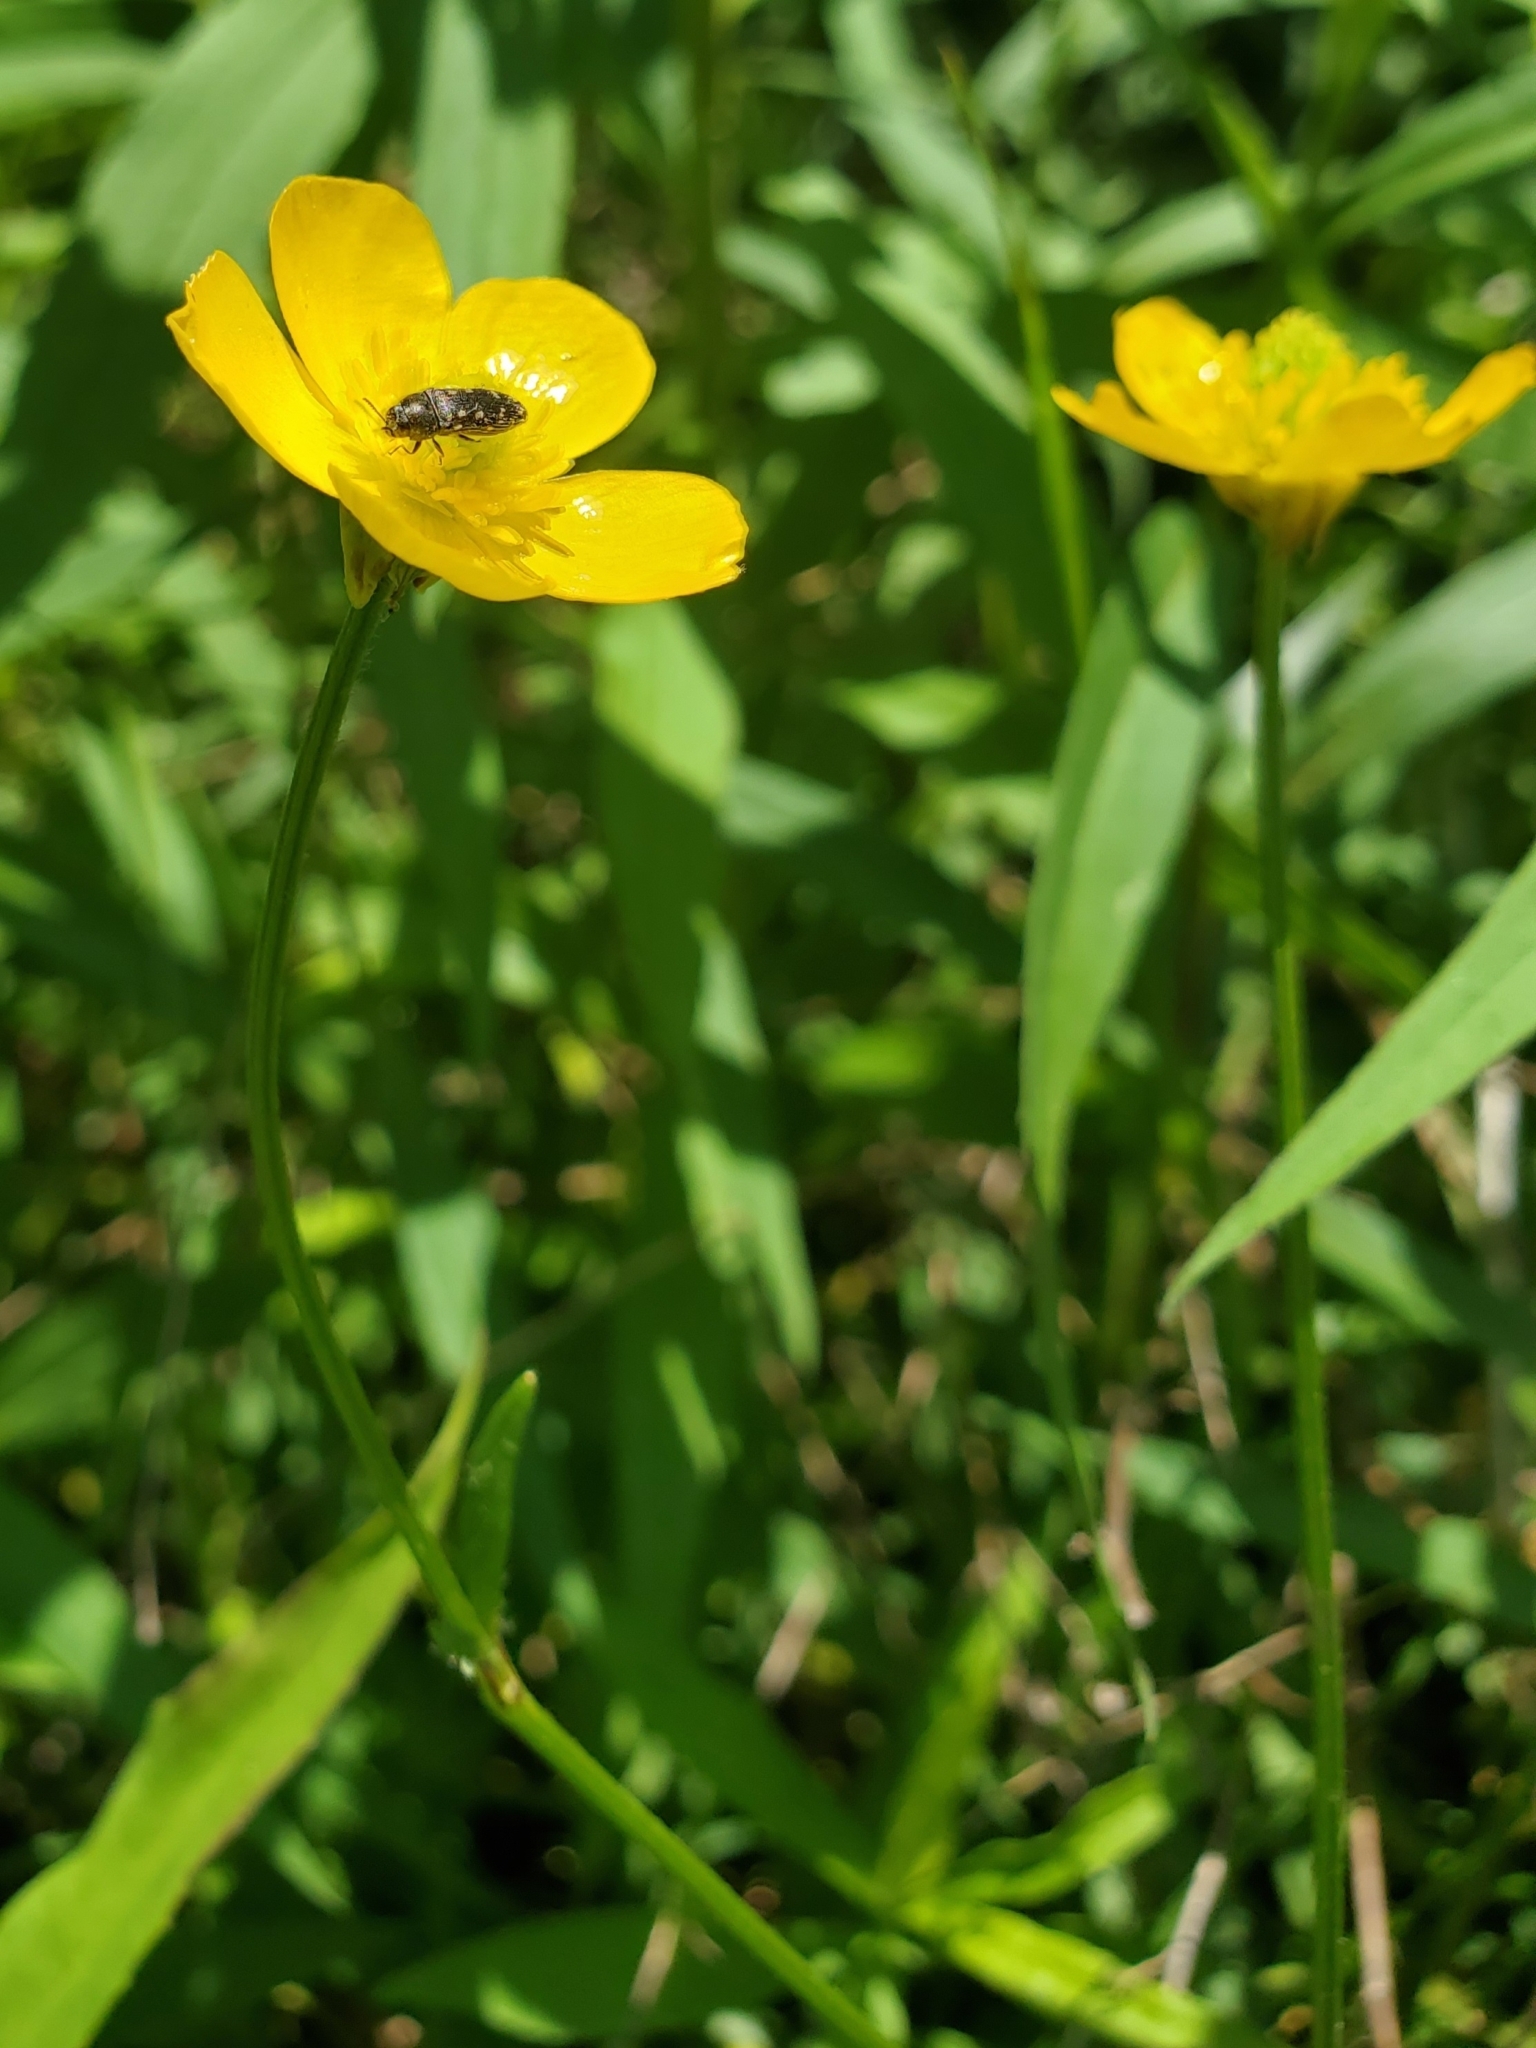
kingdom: Animalia
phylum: Arthropoda
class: Insecta
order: Coleoptera
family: Buprestidae
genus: Acmaeodera
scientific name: Acmaeodera tubulus
